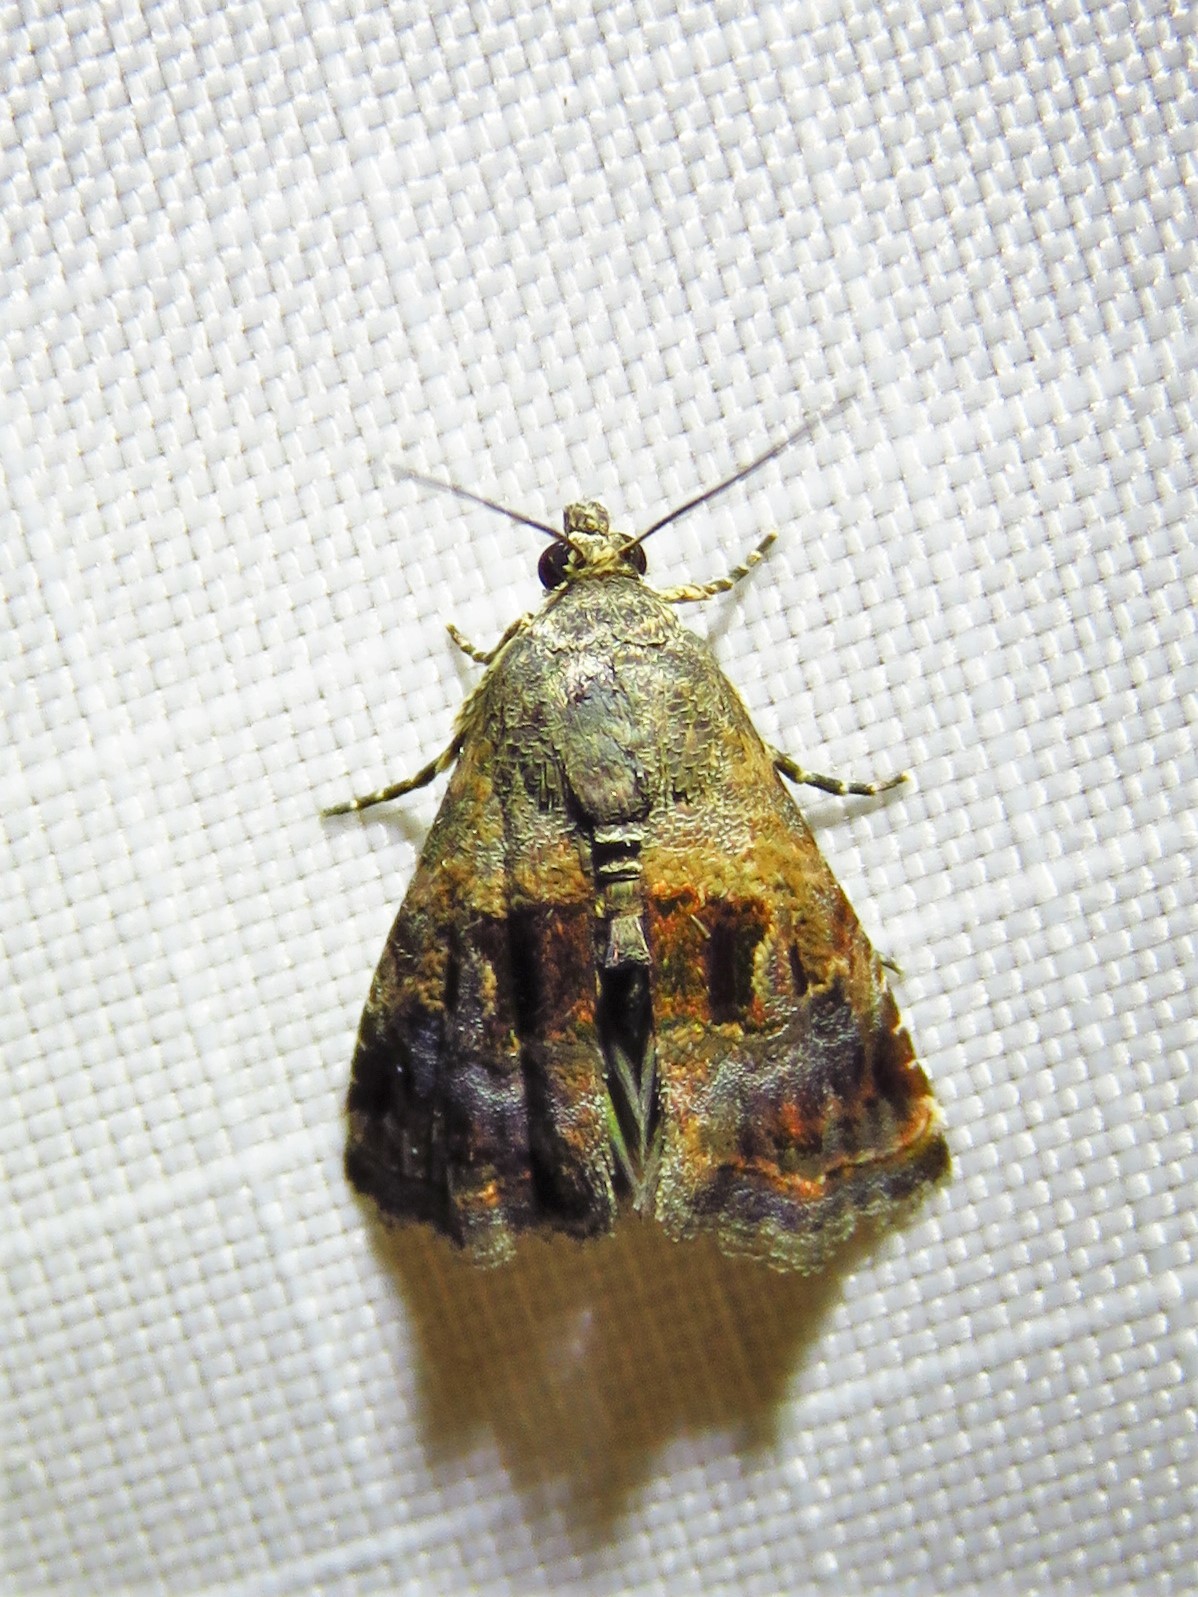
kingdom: Animalia
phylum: Arthropoda
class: Insecta
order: Lepidoptera
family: Noctuidae
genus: Tripudia
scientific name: Tripudia quadrifera
